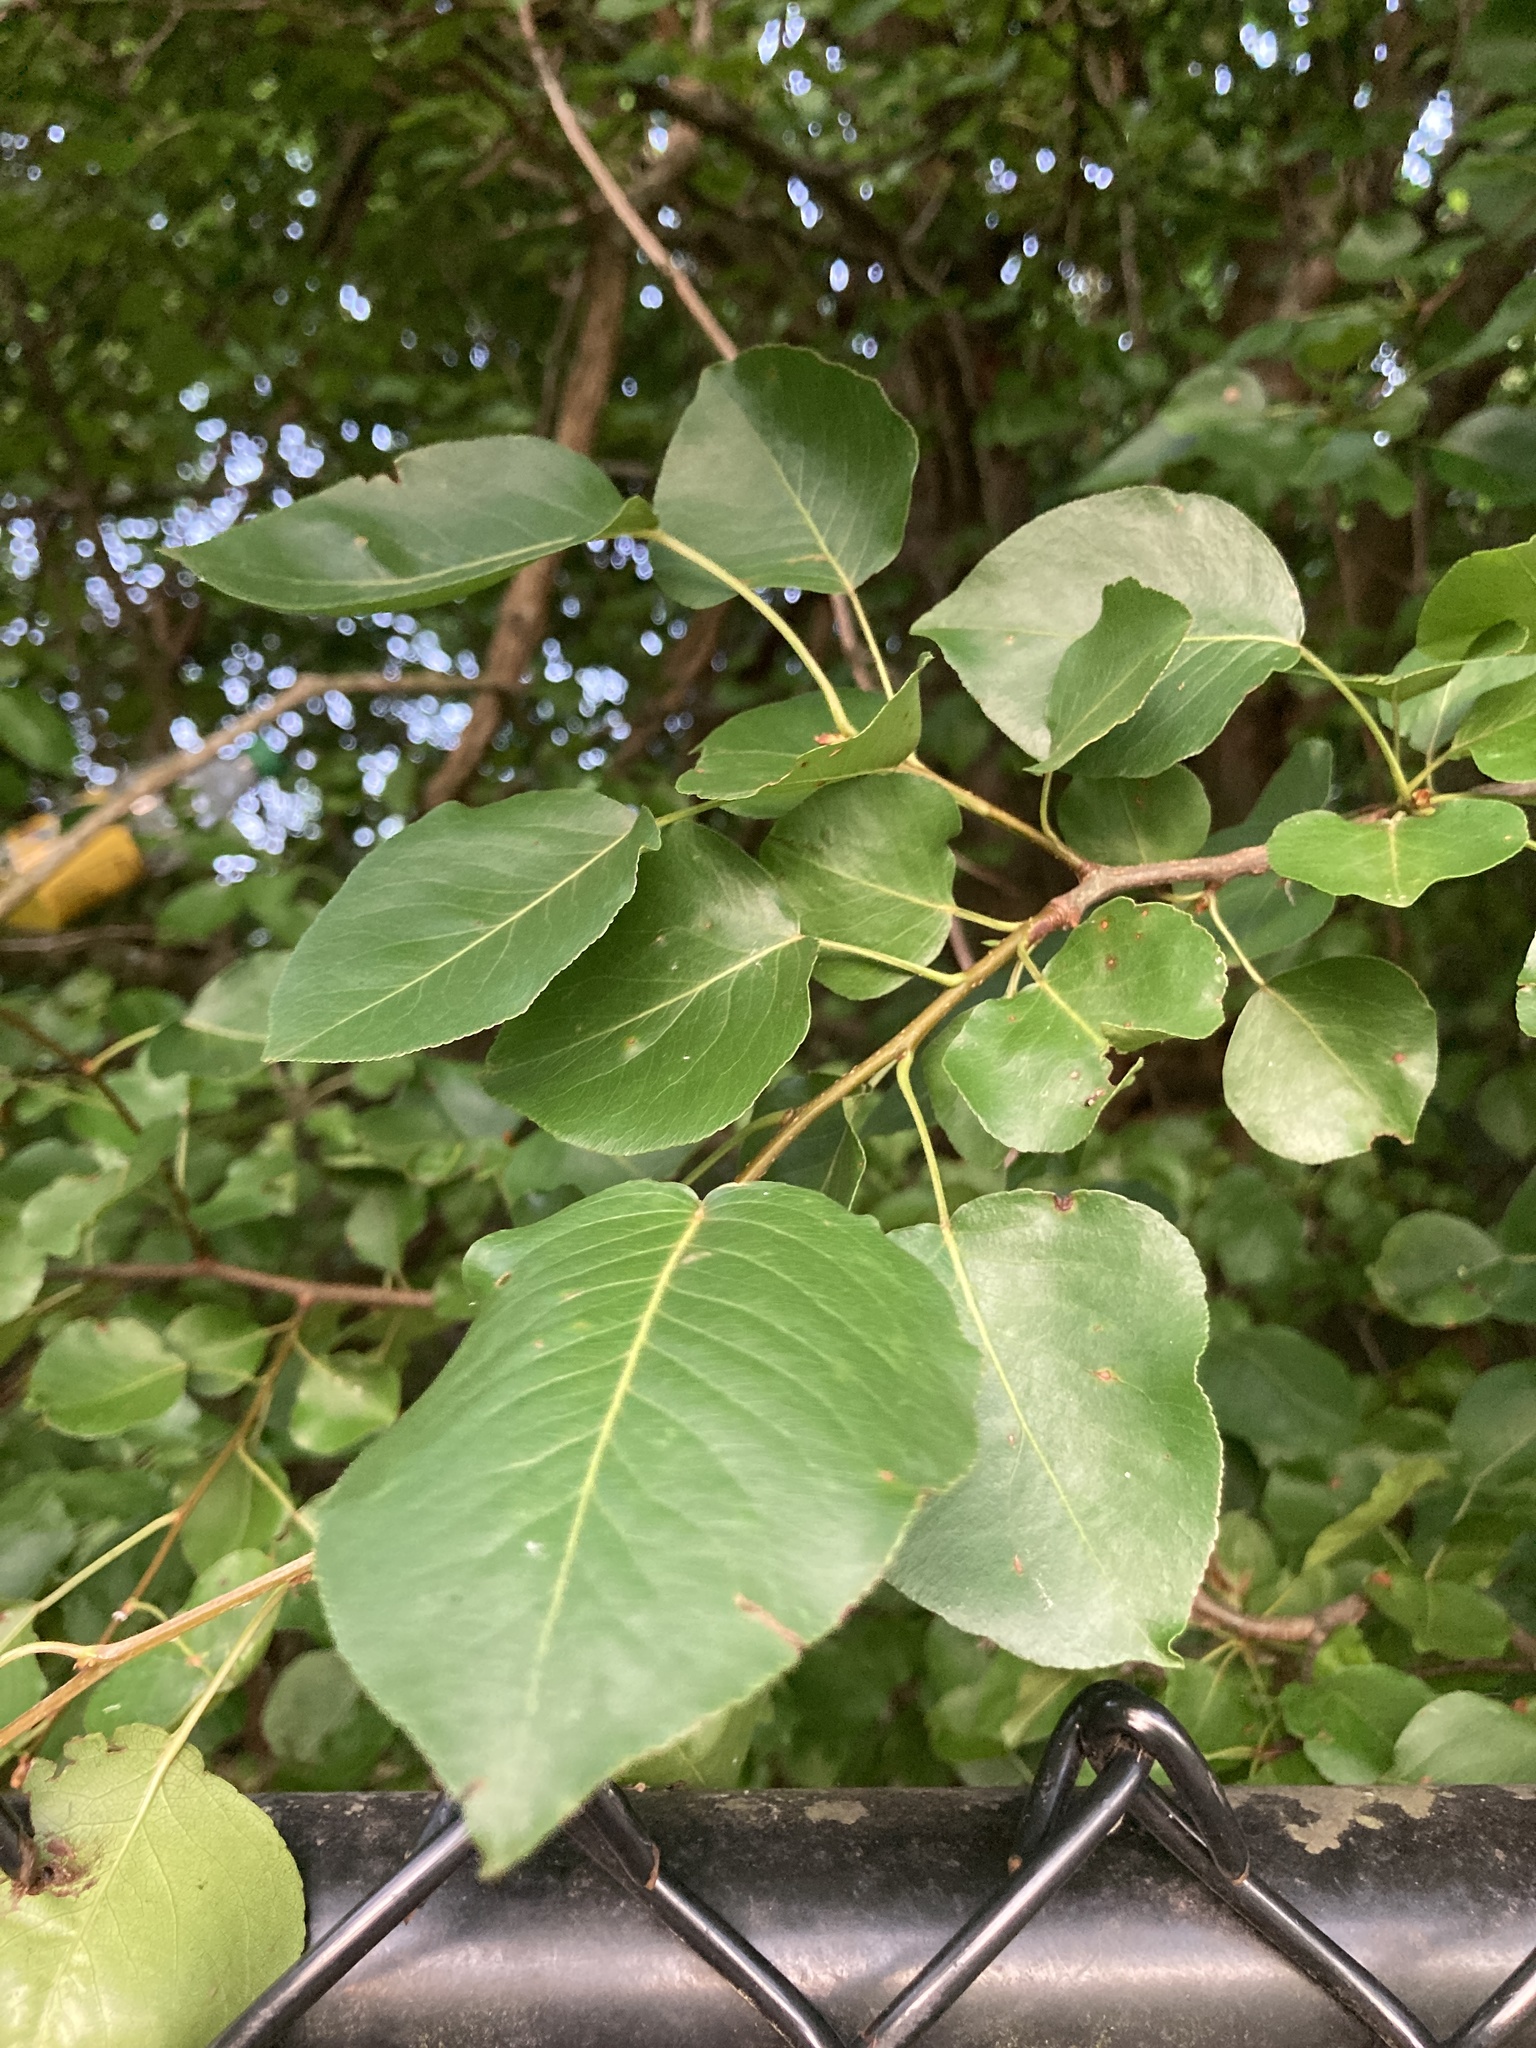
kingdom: Plantae
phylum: Tracheophyta
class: Magnoliopsida
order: Rosales
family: Rosaceae
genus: Pyrus
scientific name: Pyrus calleryana
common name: Callery pear
